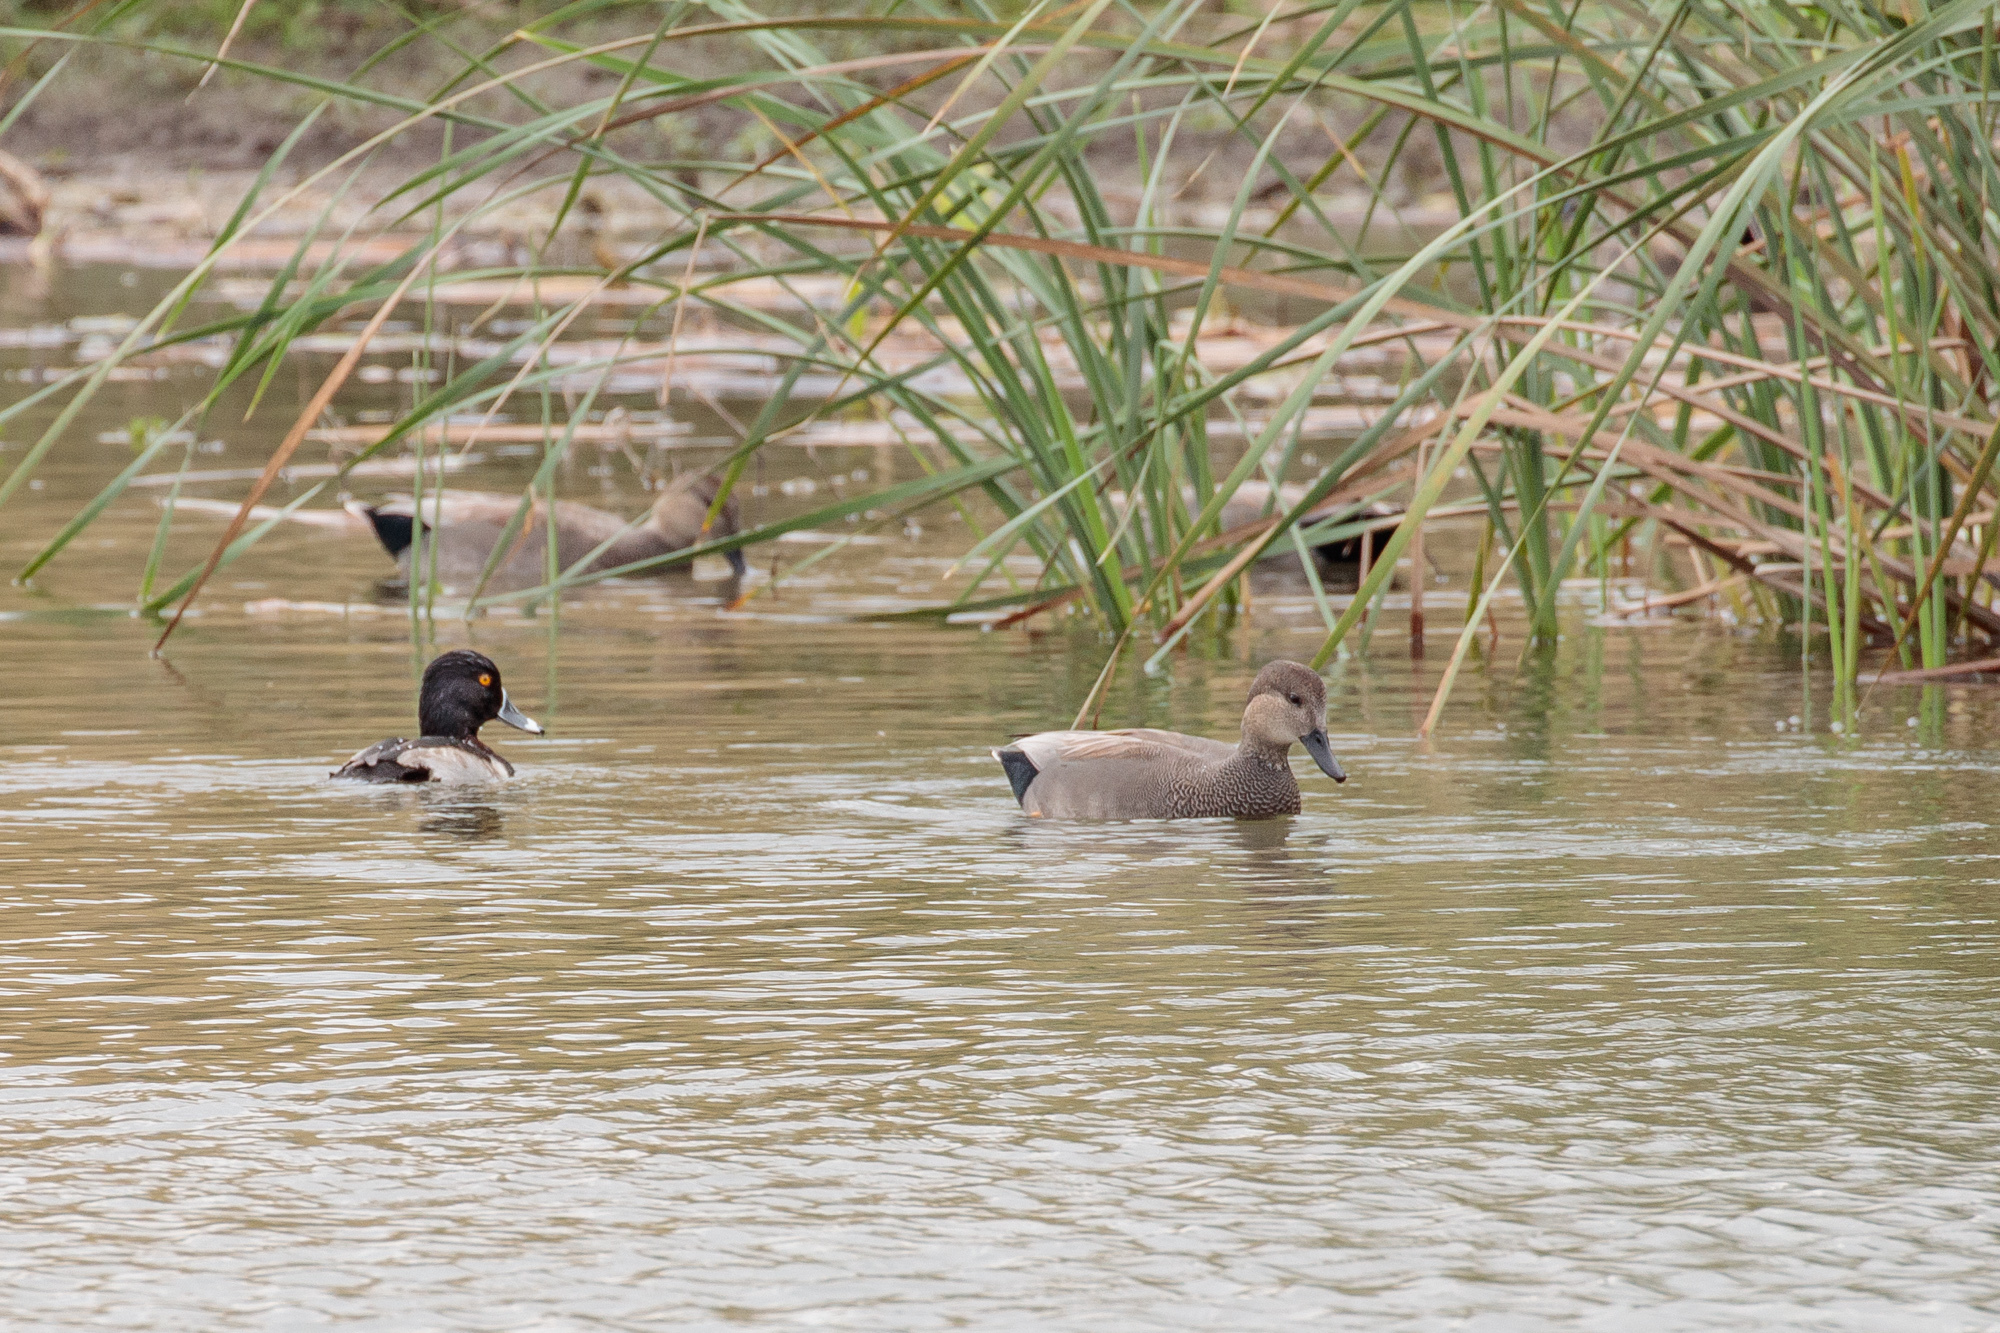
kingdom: Animalia
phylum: Chordata
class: Aves
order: Anseriformes
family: Anatidae
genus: Mareca
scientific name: Mareca strepera
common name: Gadwall
